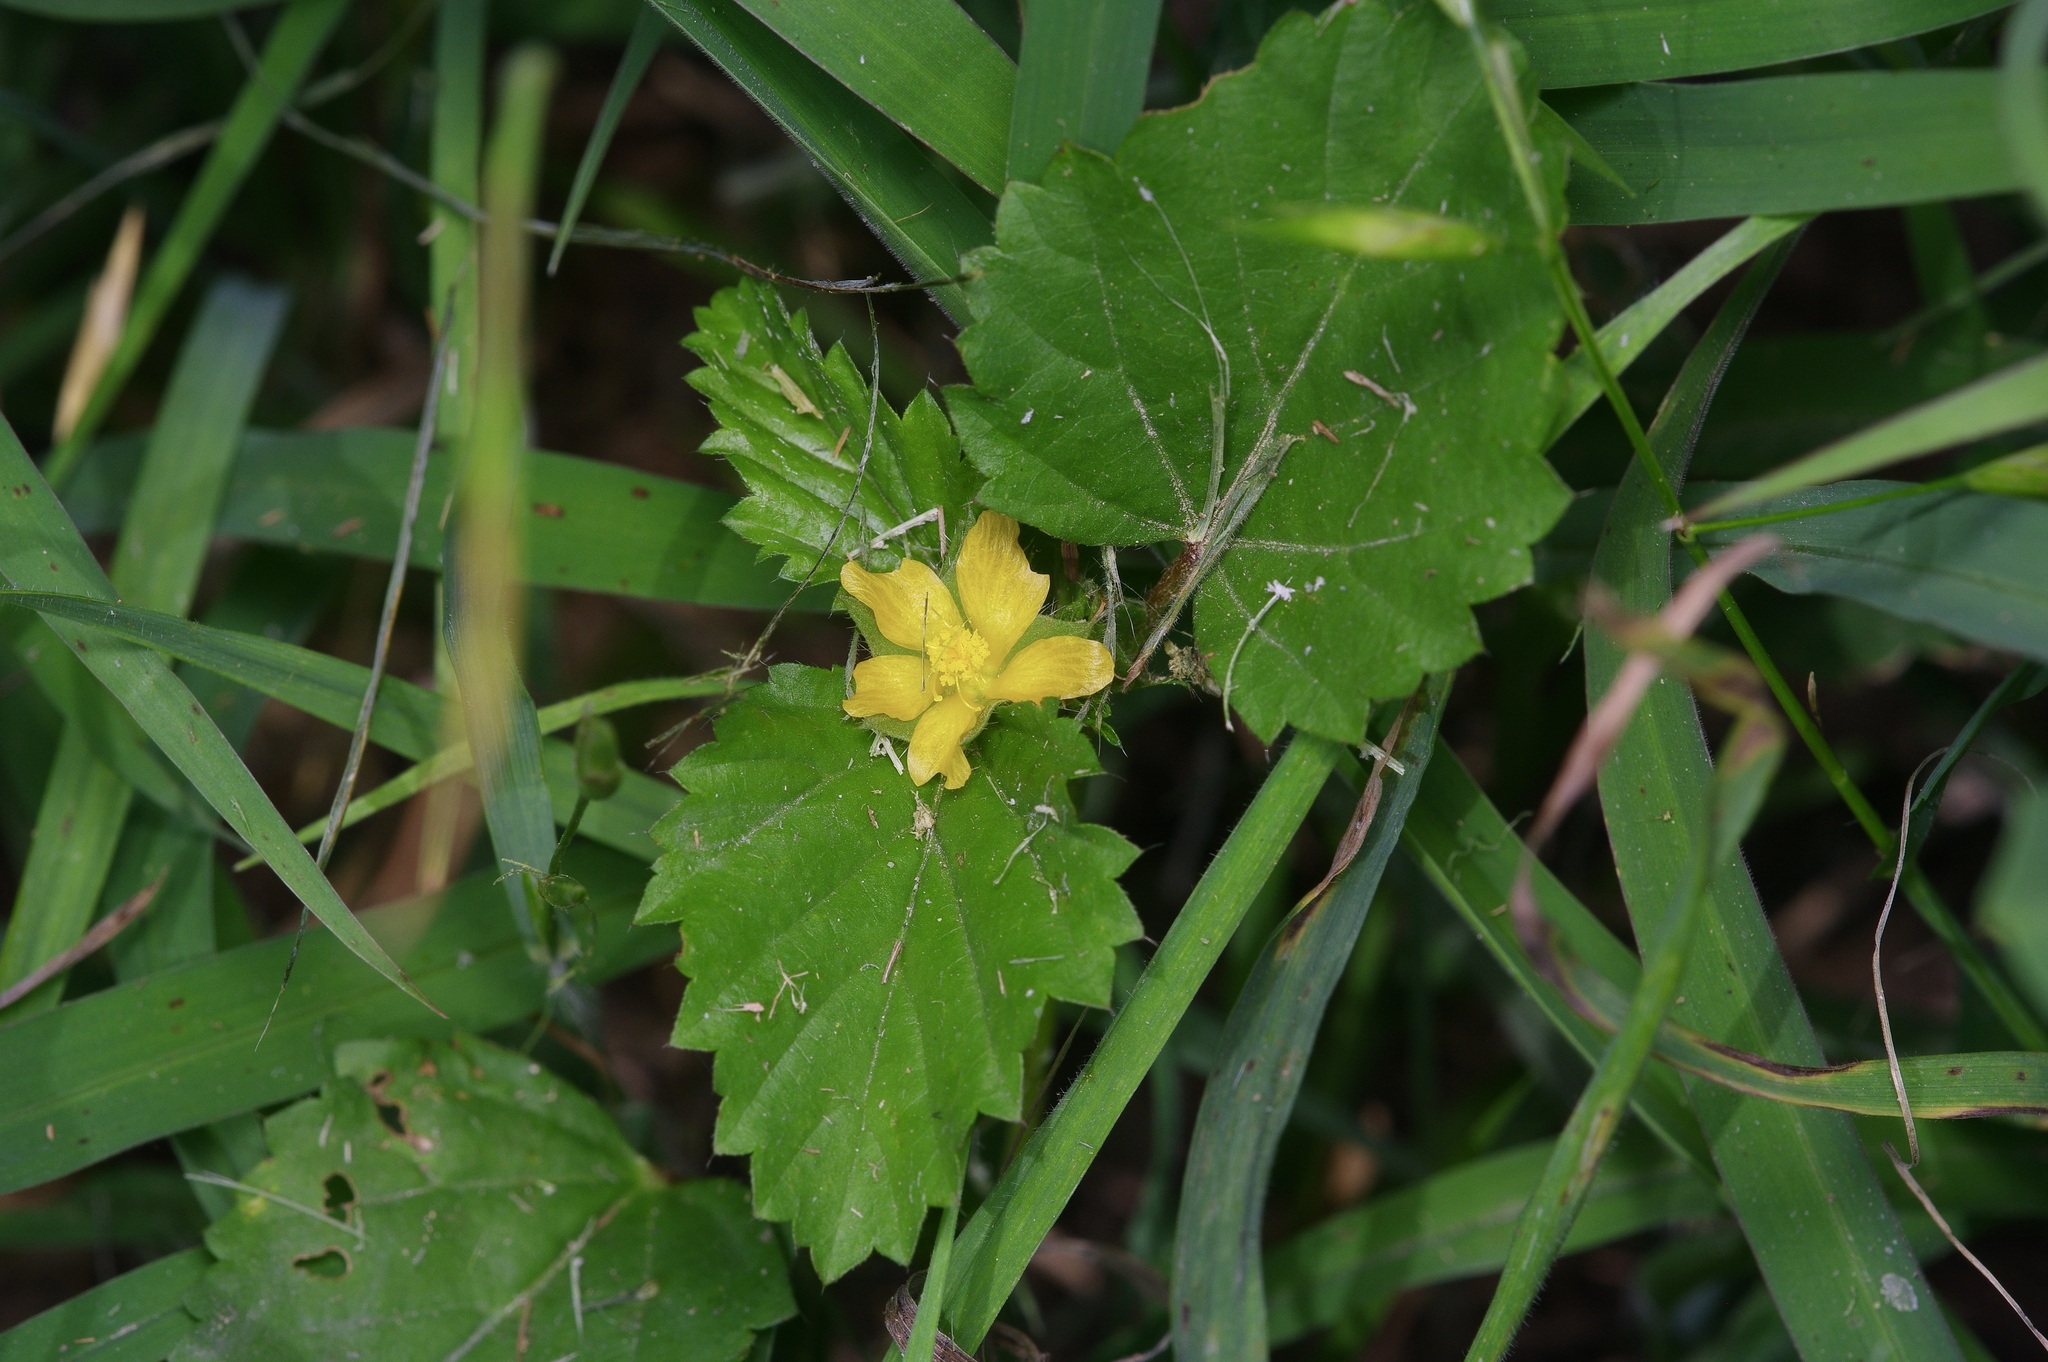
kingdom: Plantae
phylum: Tracheophyta
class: Magnoliopsida
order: Malvales
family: Malvaceae
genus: Malvastrum
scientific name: Malvastrum coromandelianum
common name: Threelobe false mallow
